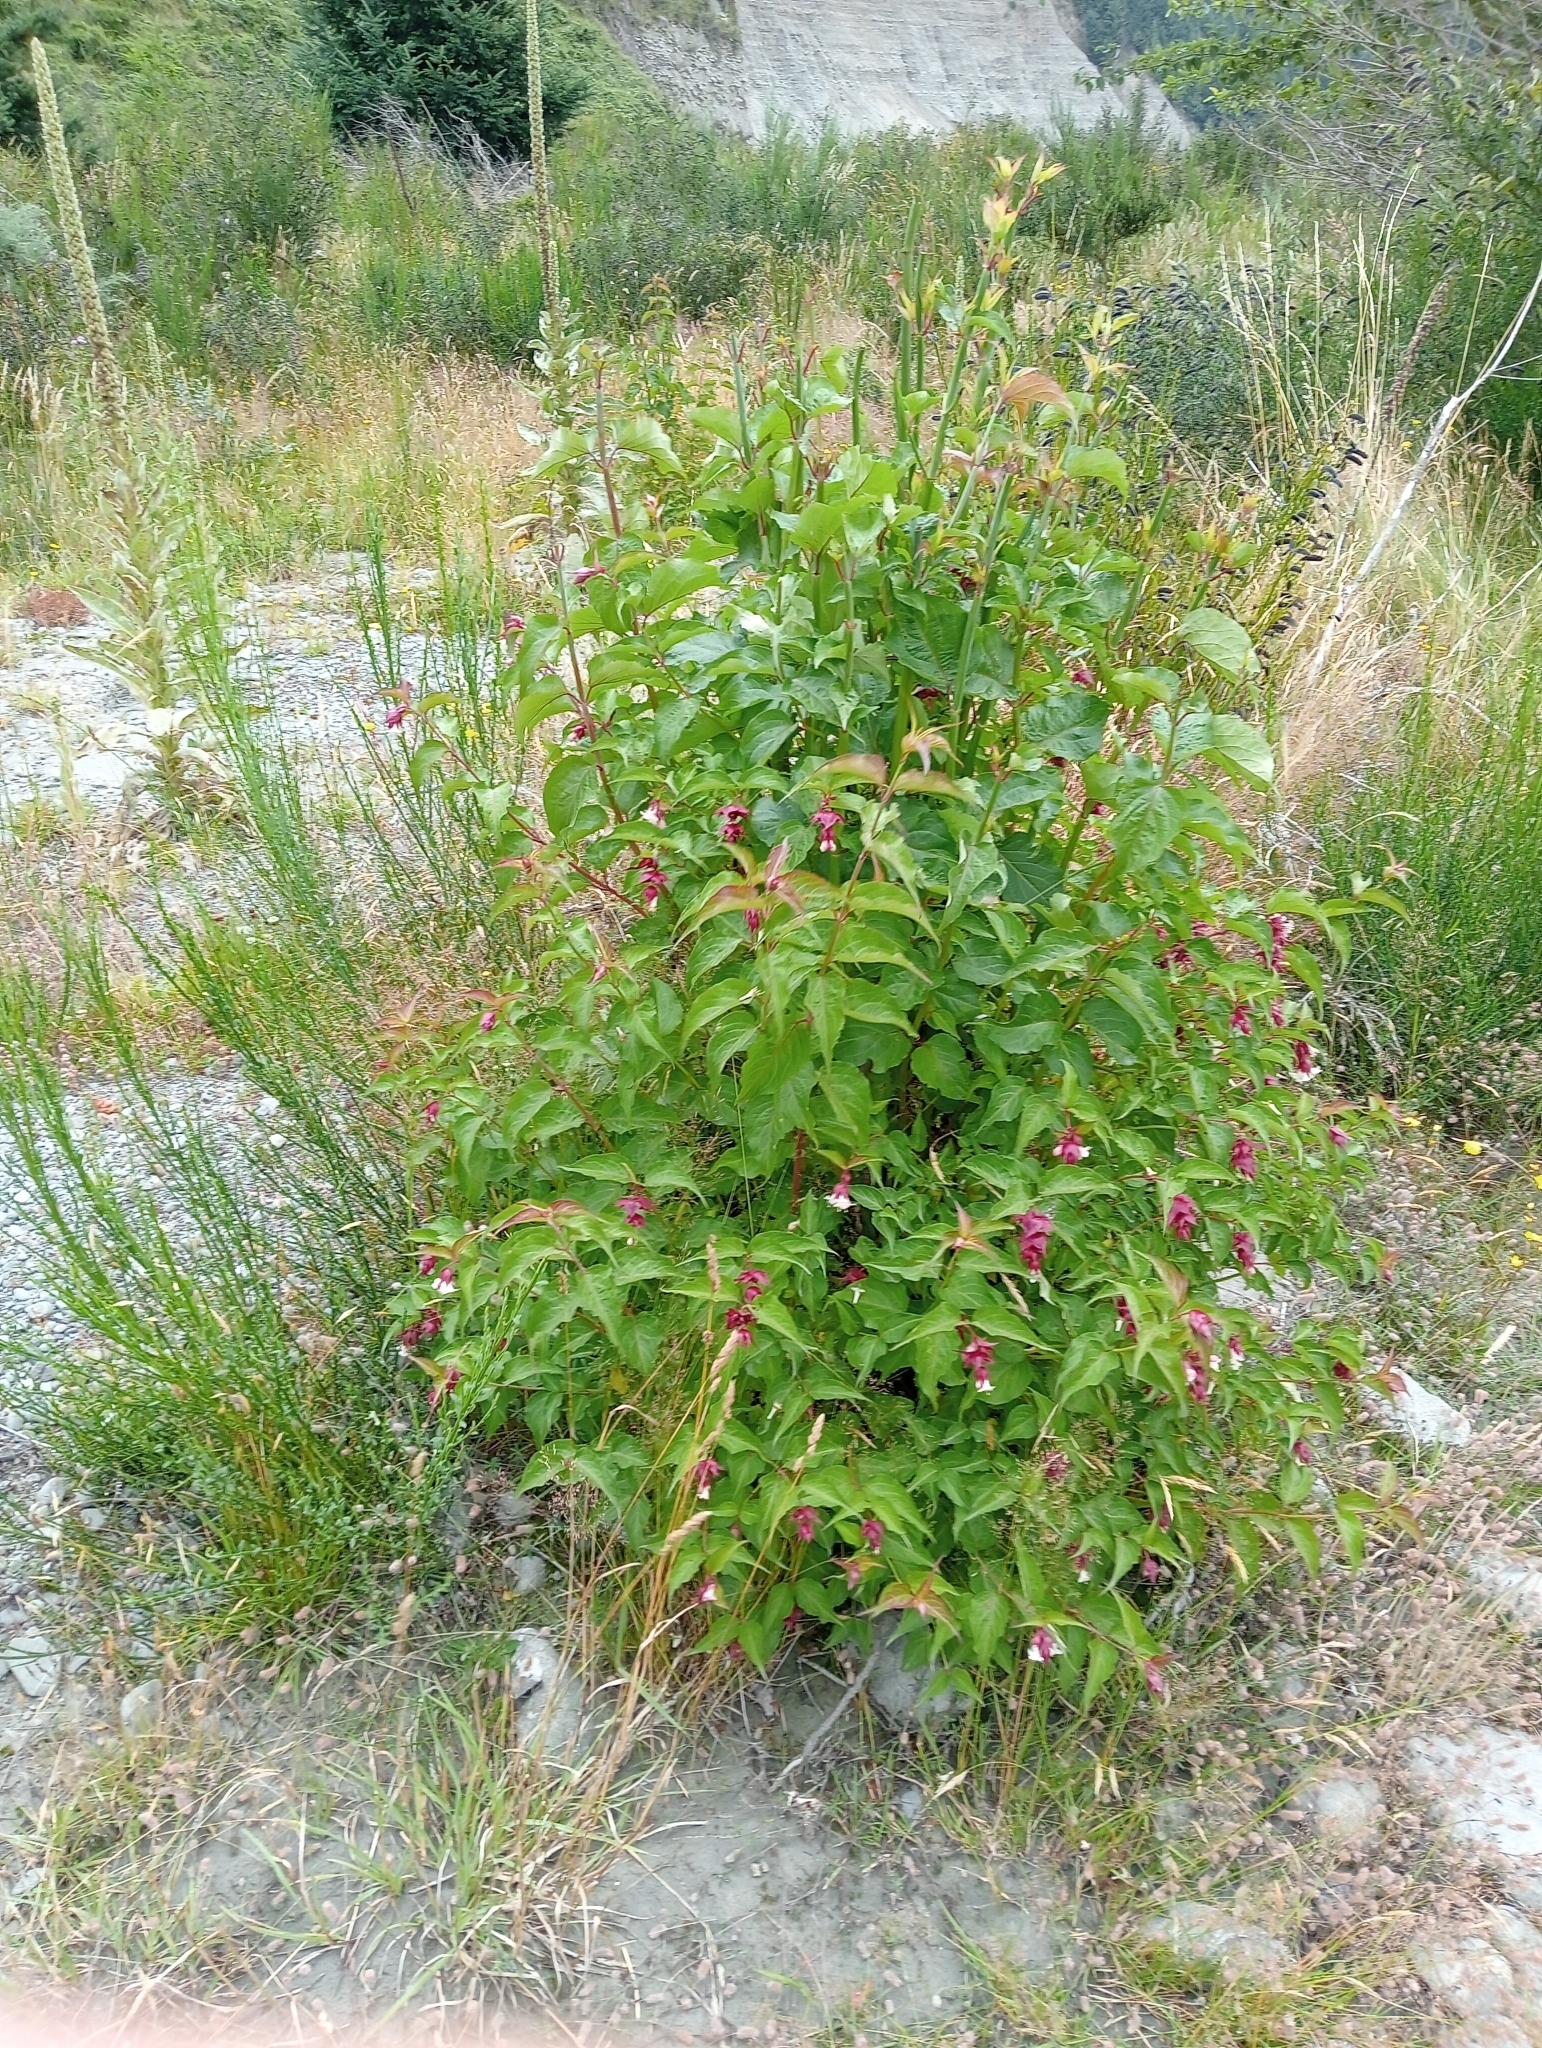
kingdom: Plantae
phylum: Tracheophyta
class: Magnoliopsida
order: Dipsacales
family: Caprifoliaceae
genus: Leycesteria
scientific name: Leycesteria formosa
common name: Himalayan honeysuckle
